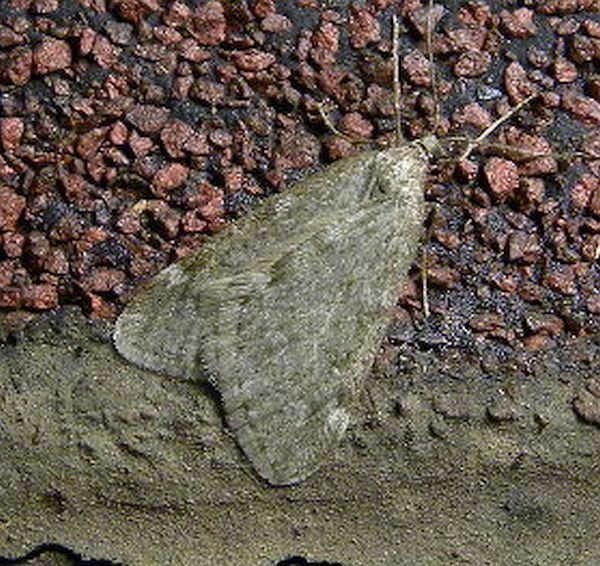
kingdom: Animalia
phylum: Arthropoda
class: Insecta
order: Lepidoptera
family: Geometridae
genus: Paleacrita
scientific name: Paleacrita vernata
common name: Spring cankerworm
